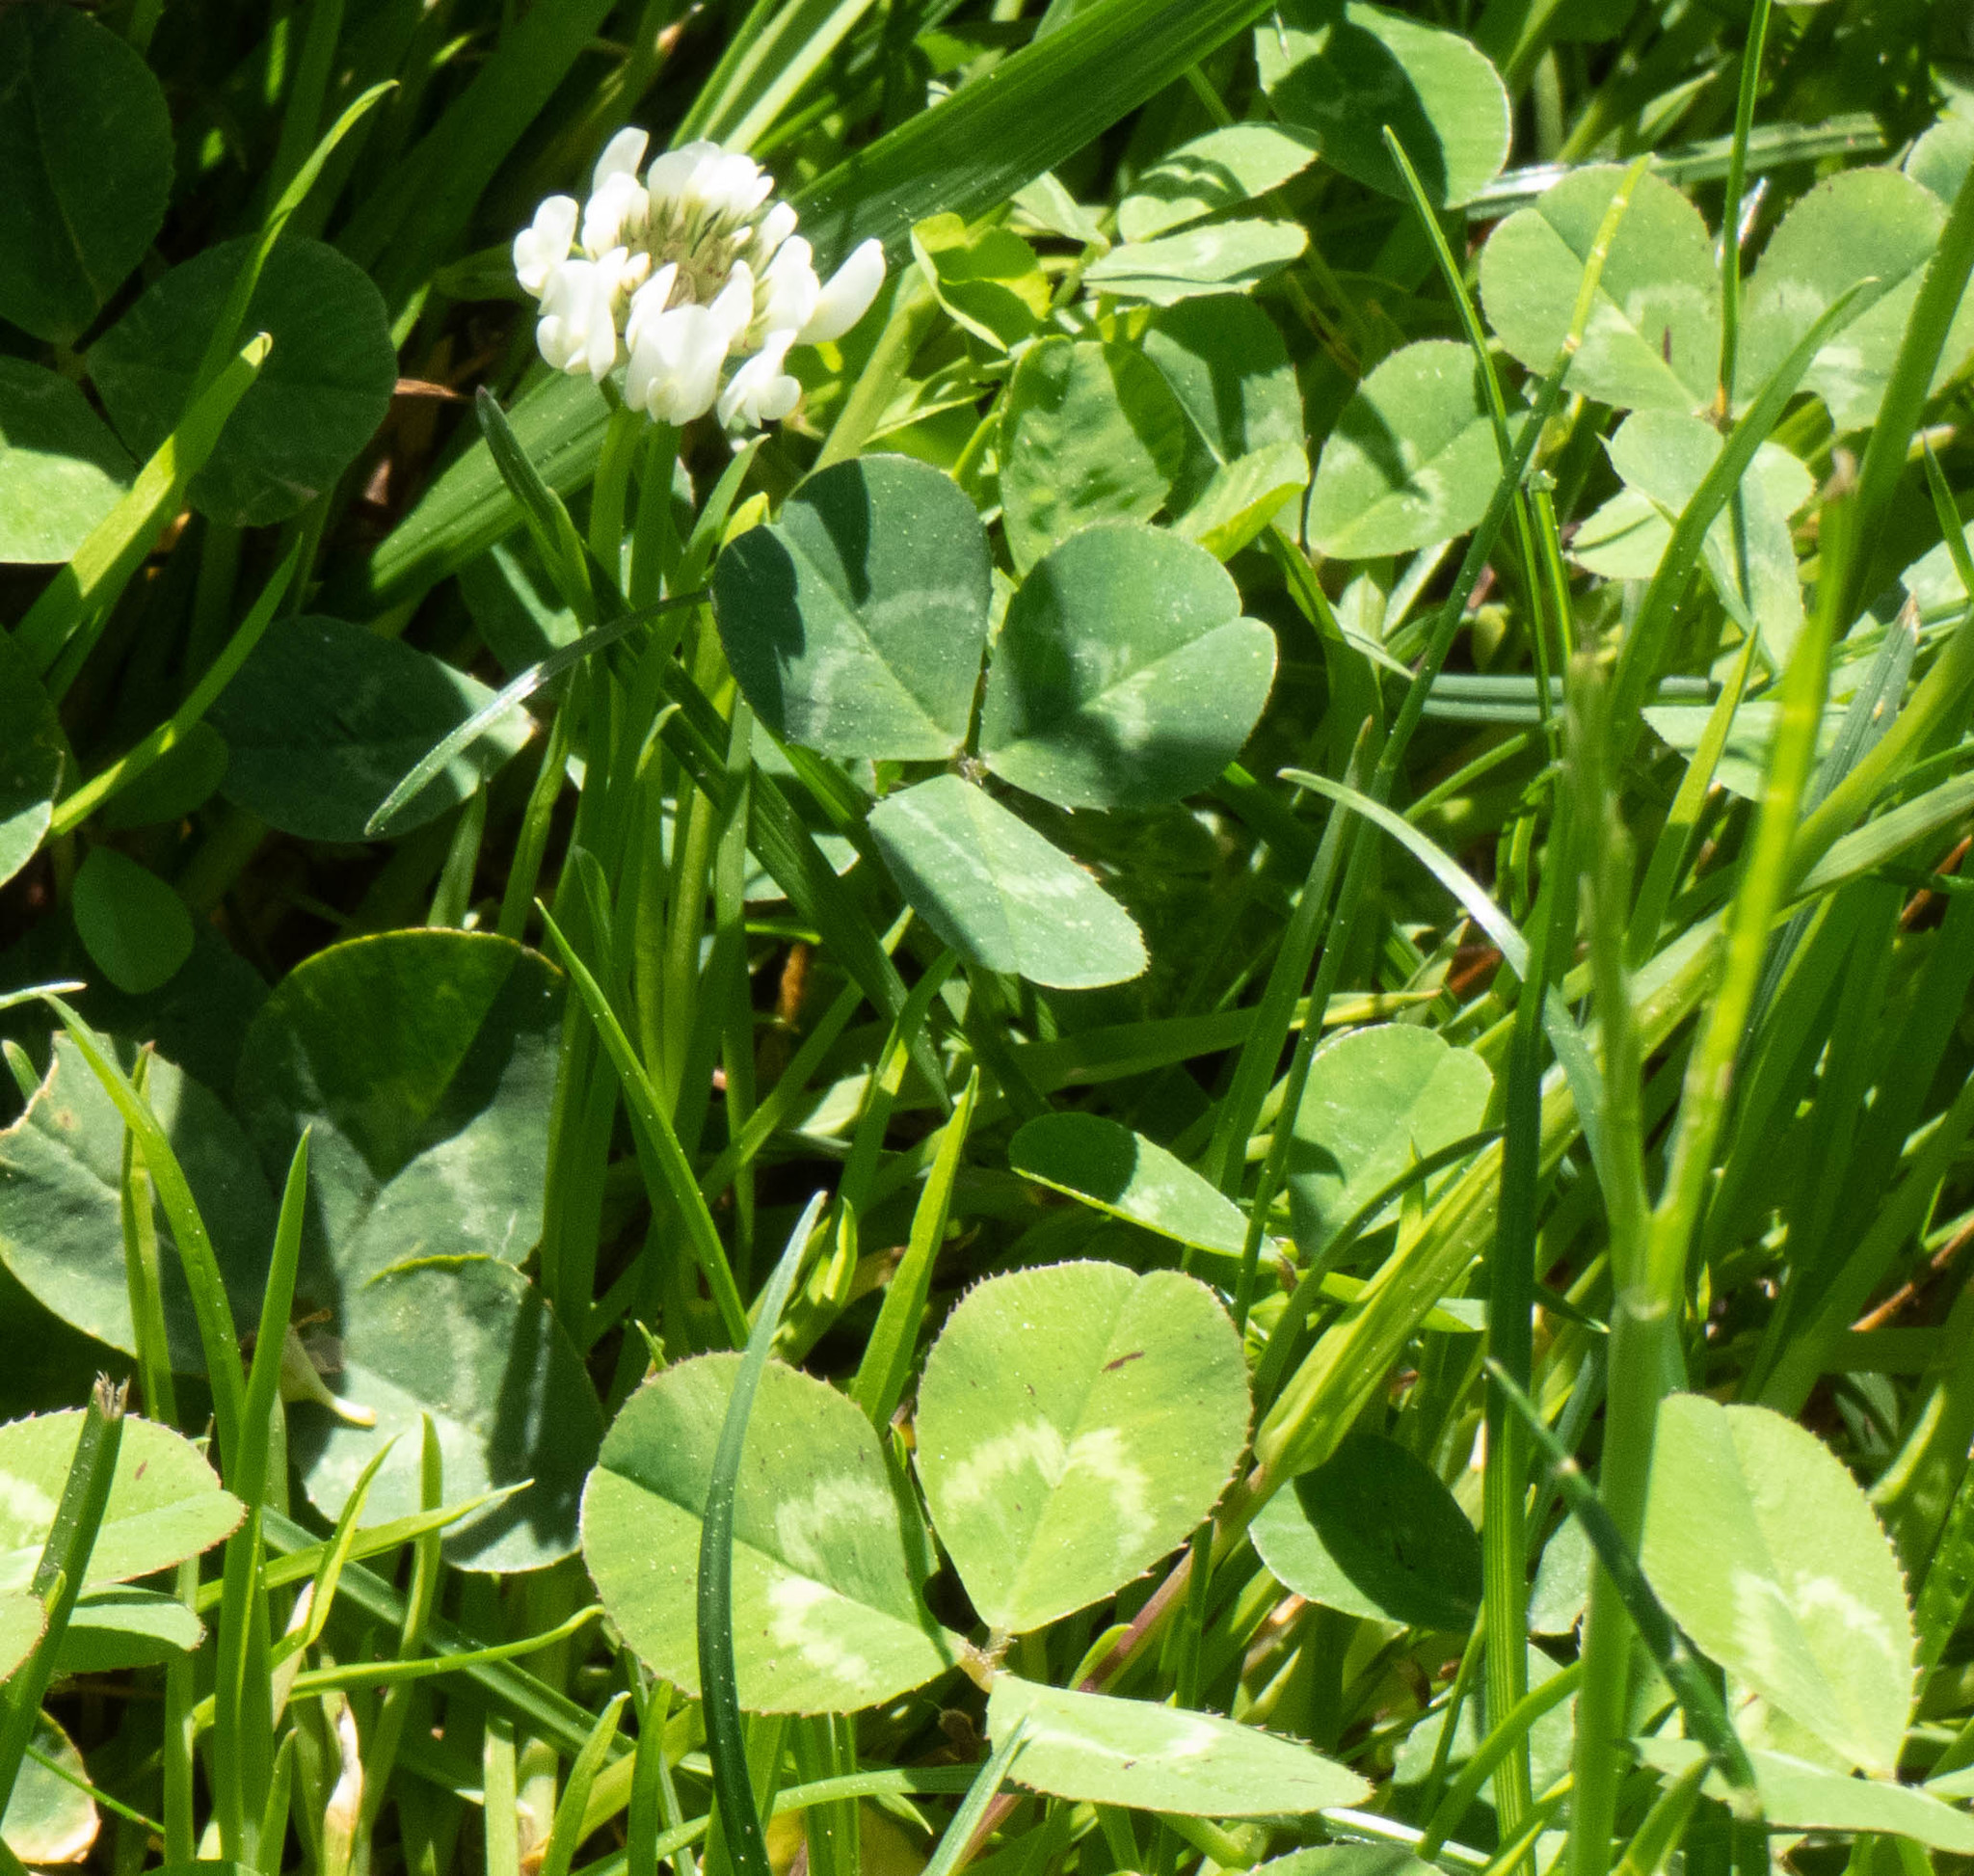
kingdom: Plantae
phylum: Tracheophyta
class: Magnoliopsida
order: Fabales
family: Fabaceae
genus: Trifolium
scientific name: Trifolium repens
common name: White clover
